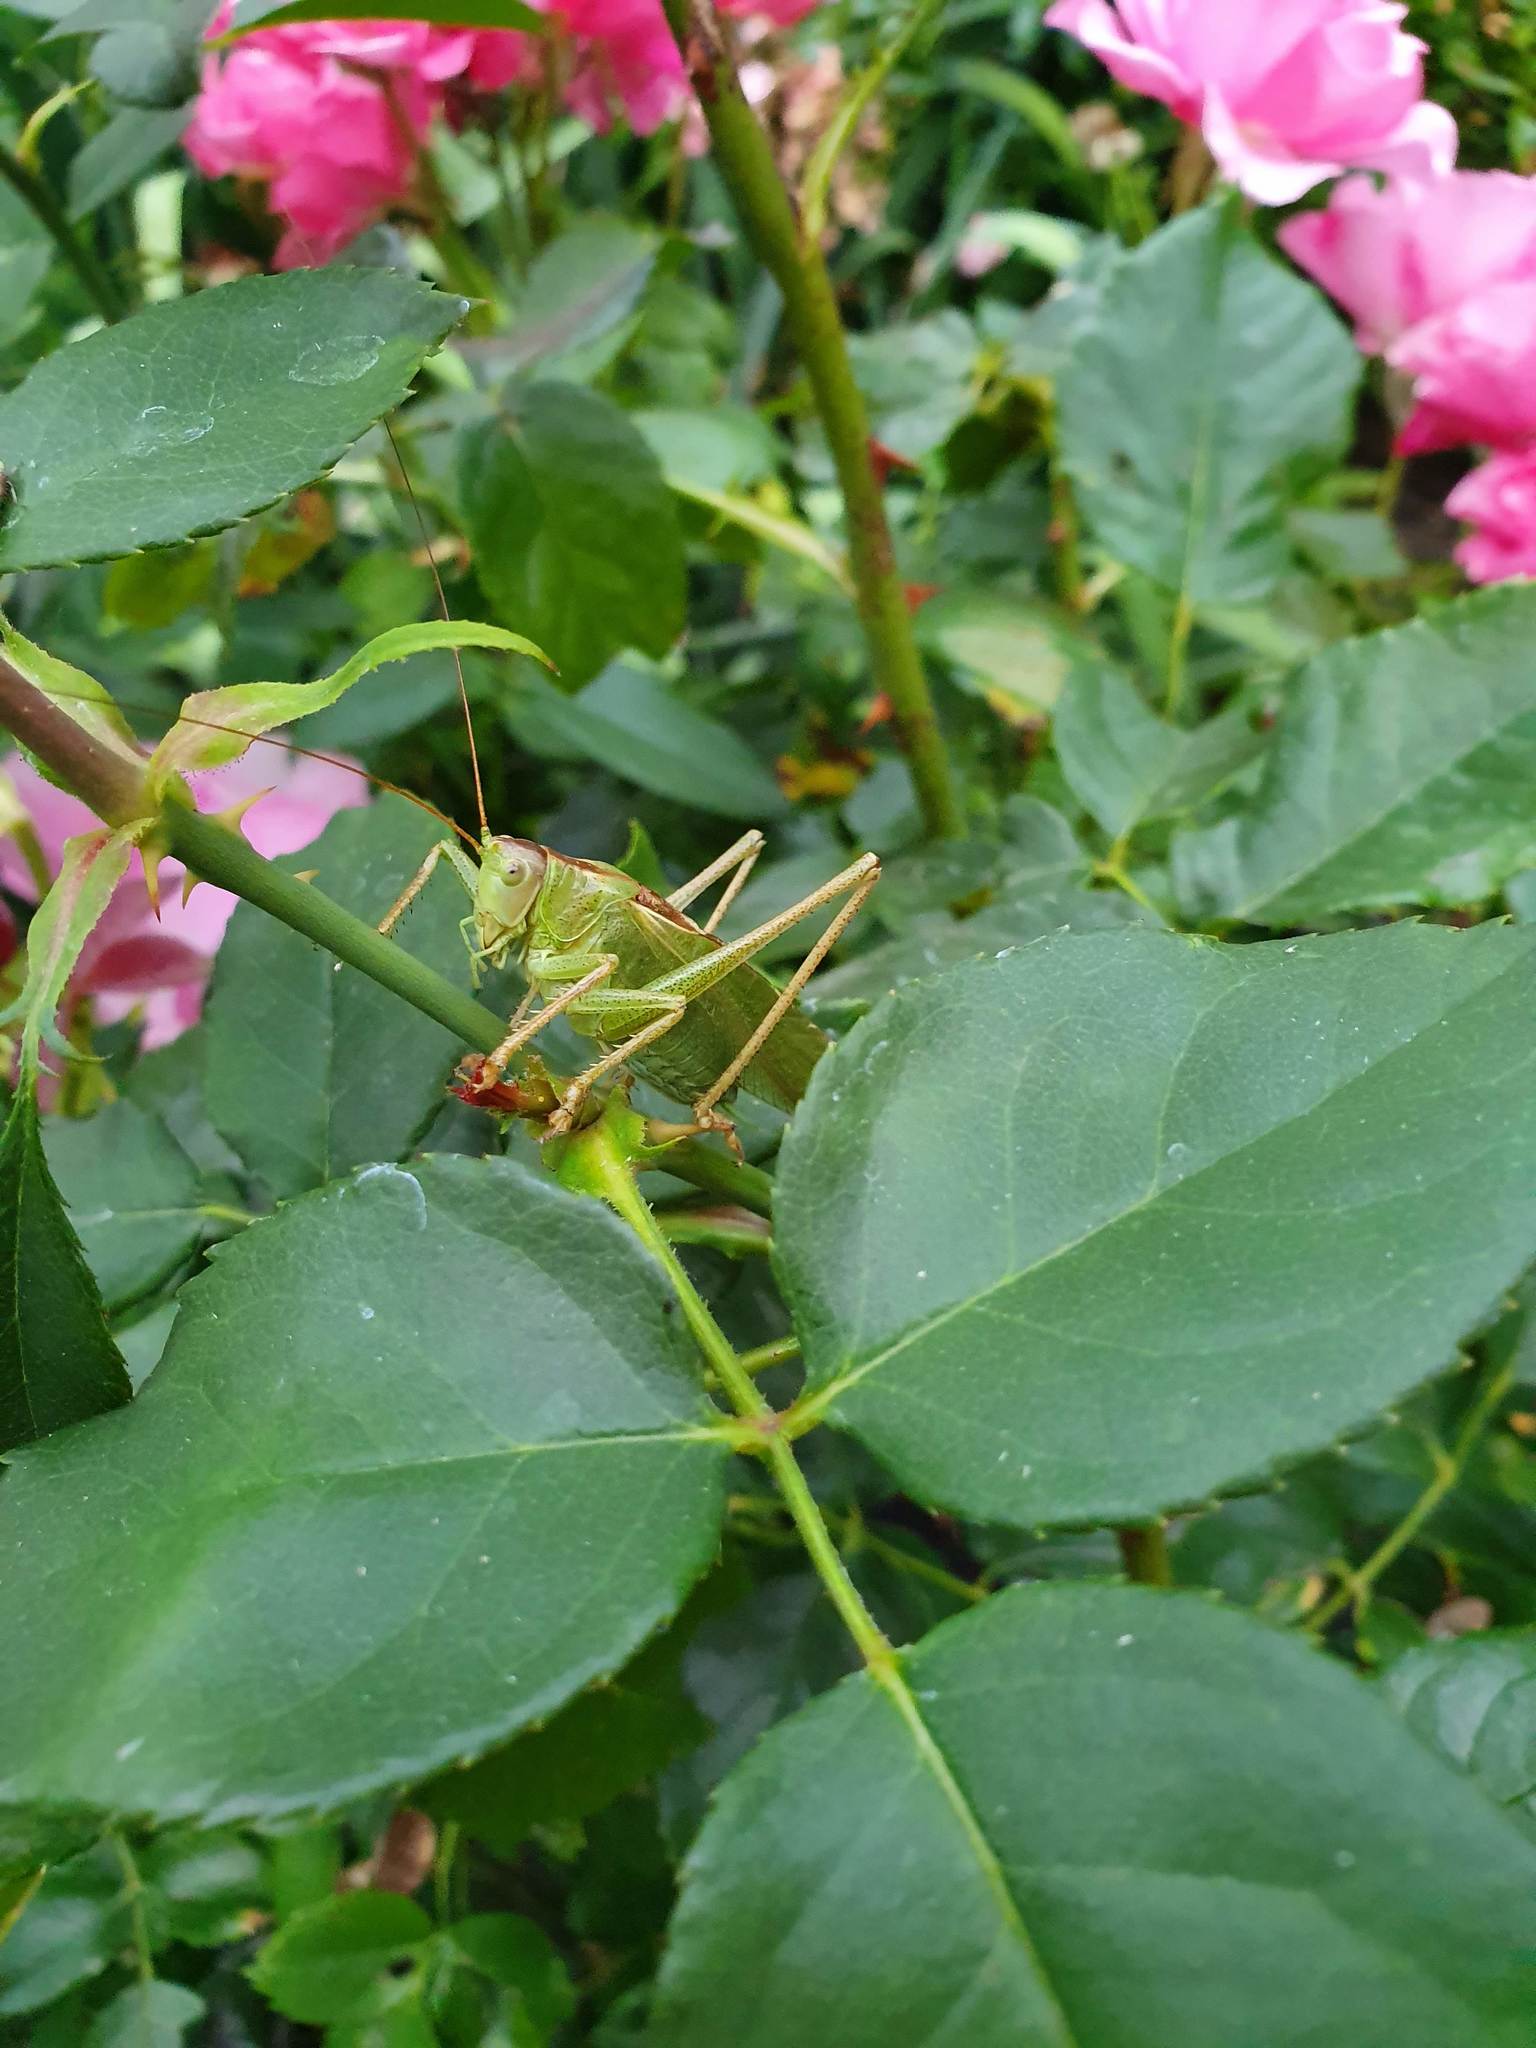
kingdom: Animalia
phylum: Arthropoda
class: Insecta
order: Orthoptera
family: Tettigoniidae
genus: Tettigonia
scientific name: Tettigonia viridissima
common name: Great green bush-cricket
